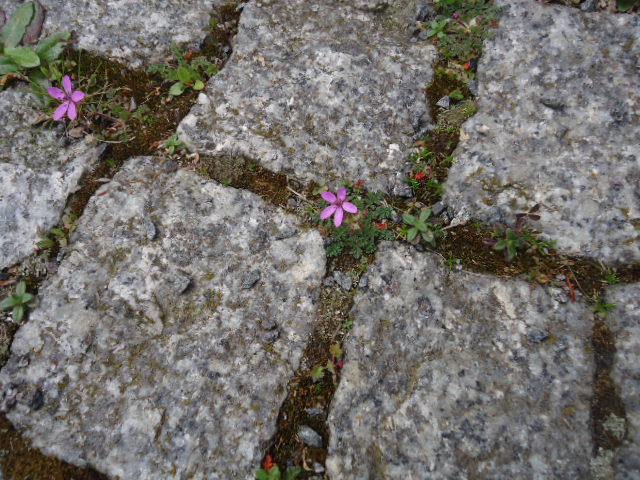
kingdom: Plantae
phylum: Tracheophyta
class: Magnoliopsida
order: Geraniales
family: Geraniaceae
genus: Erodium
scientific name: Erodium cicutarium
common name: Common stork's-bill
